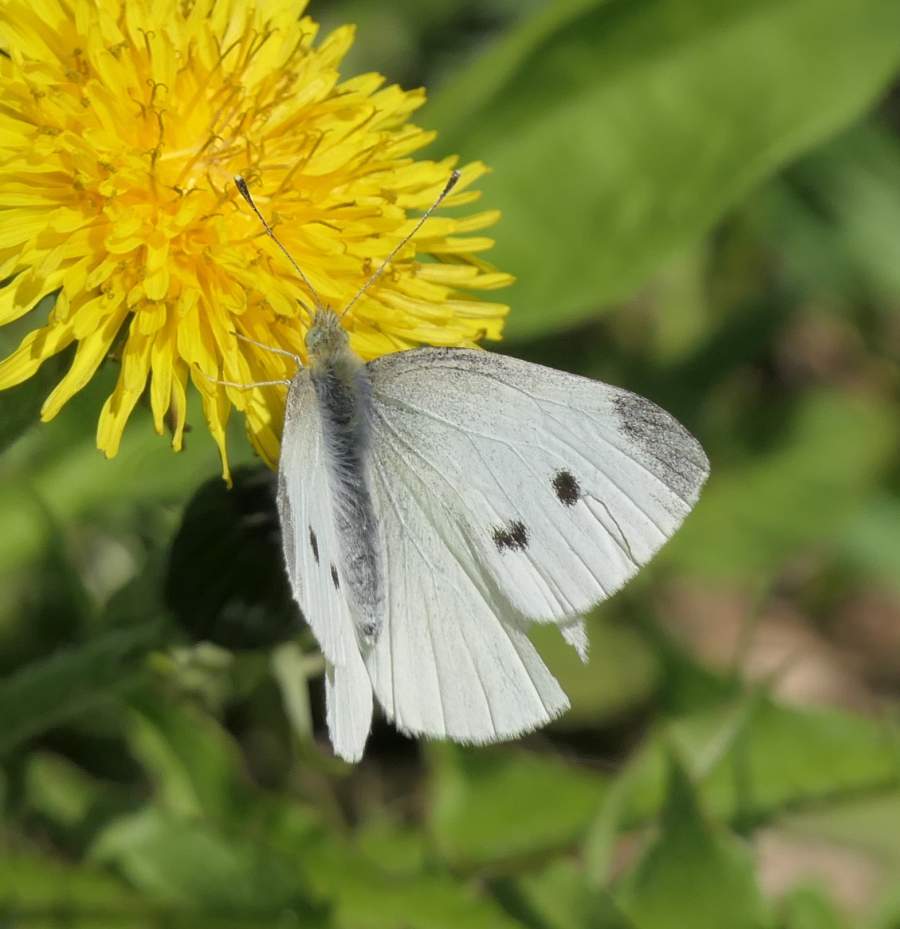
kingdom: Animalia
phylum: Arthropoda
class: Insecta
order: Lepidoptera
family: Pieridae
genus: Pieris
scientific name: Pieris rapae
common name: Small white
